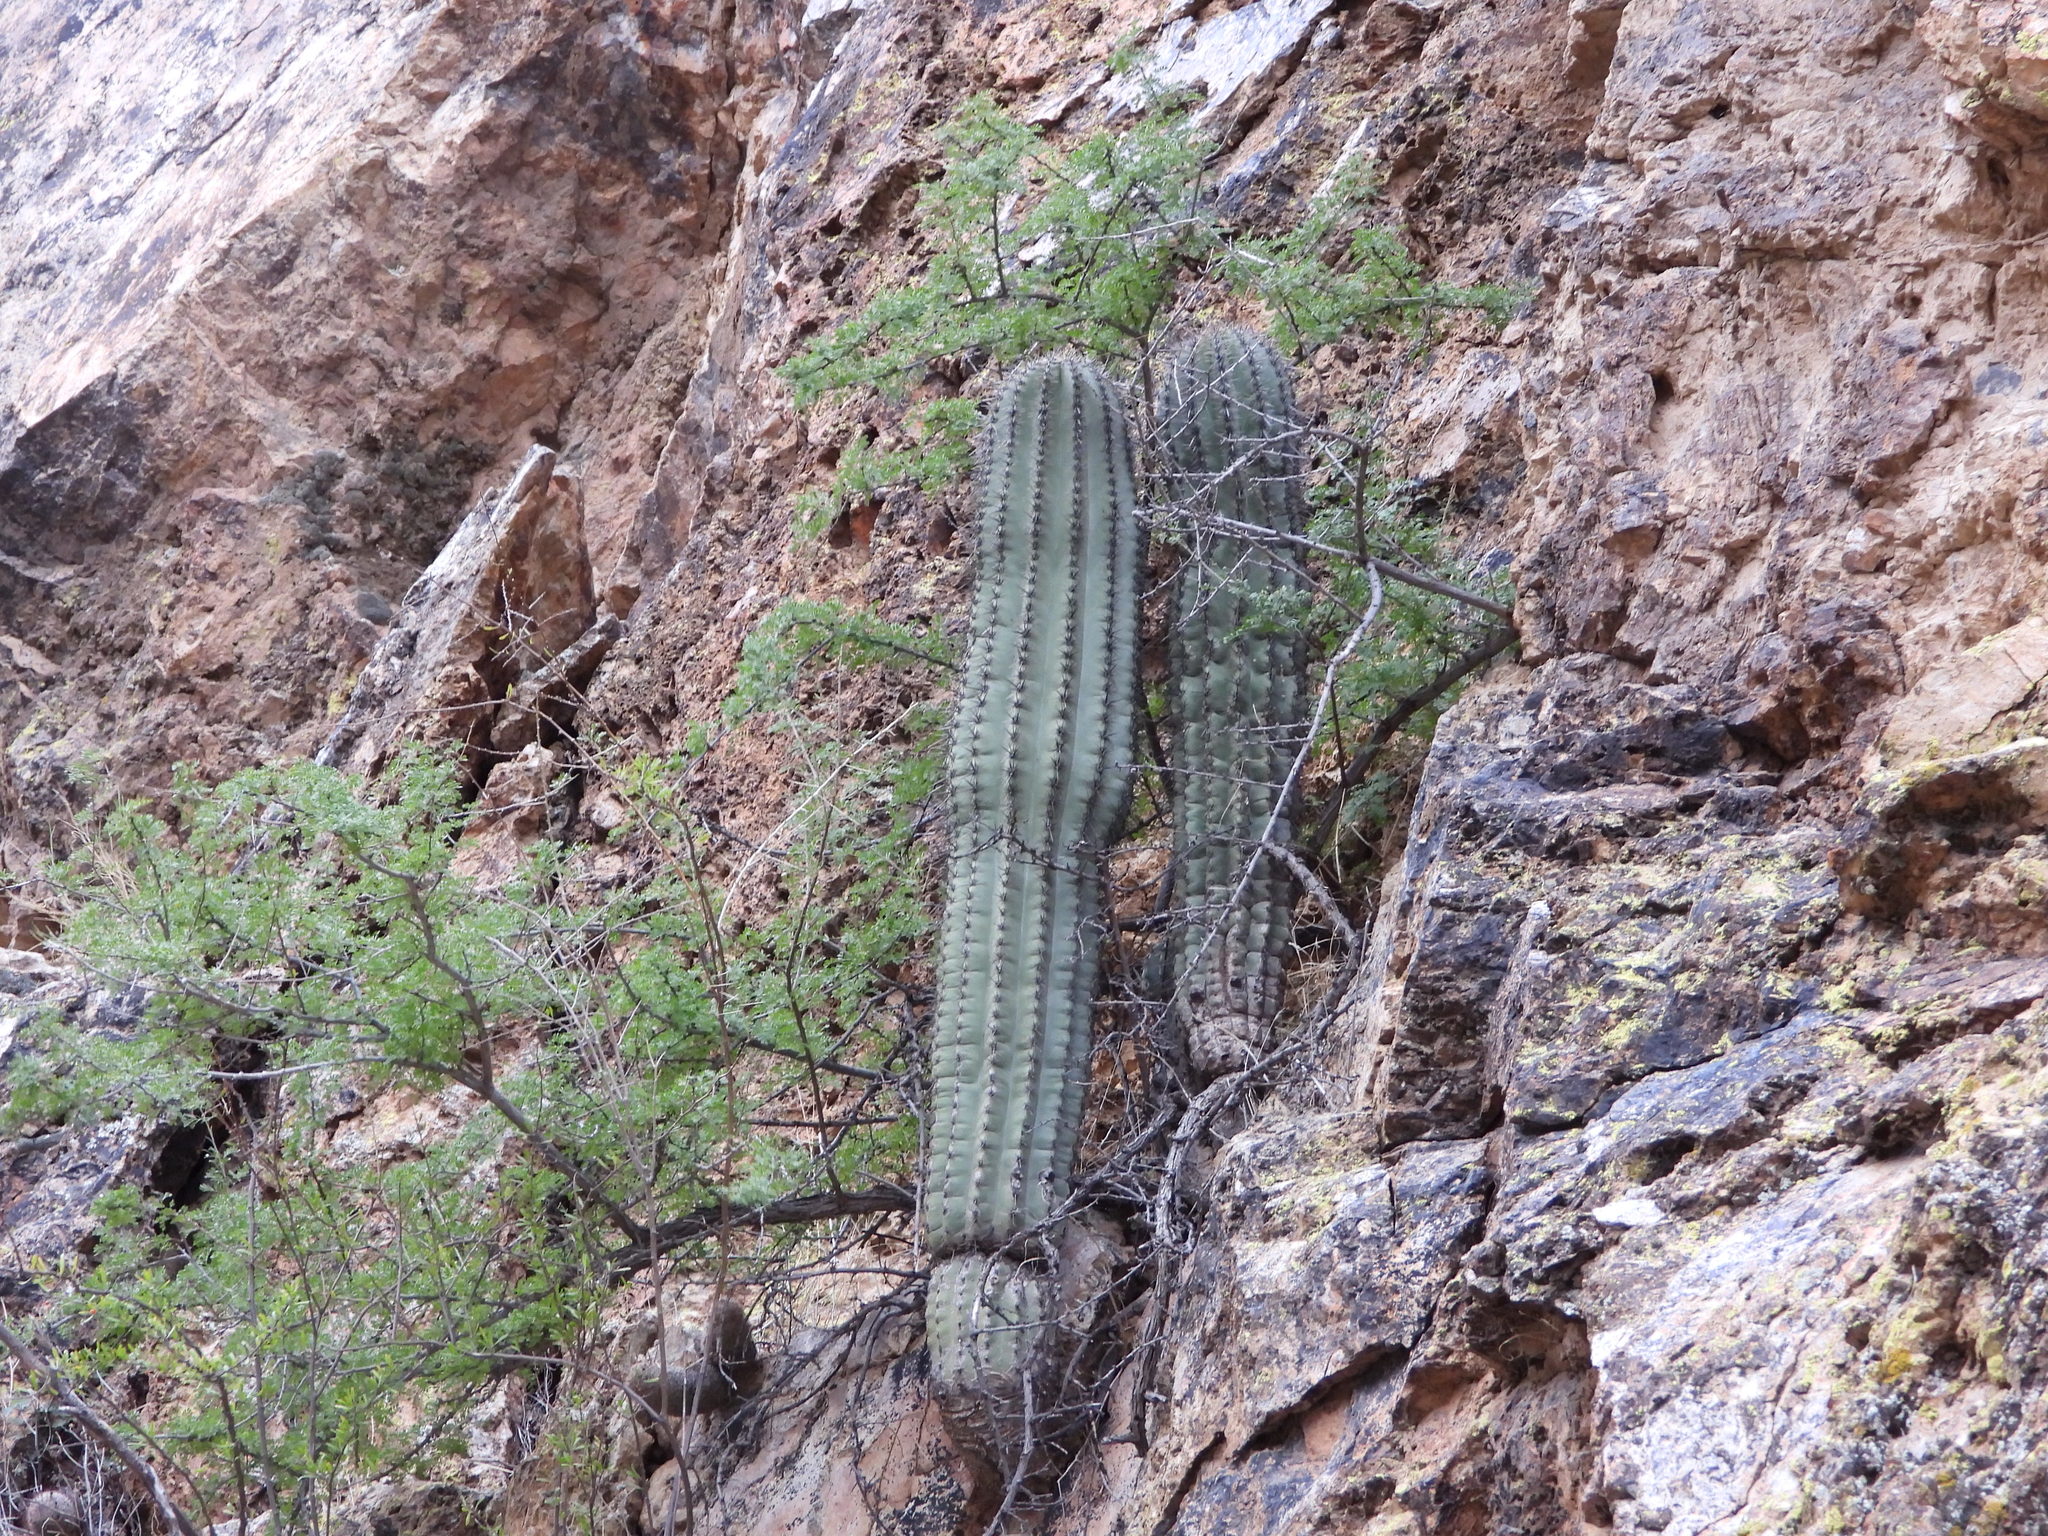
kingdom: Plantae
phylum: Tracheophyta
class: Magnoliopsida
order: Caryophyllales
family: Cactaceae
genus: Carnegiea
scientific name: Carnegiea gigantea
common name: Saguaro
